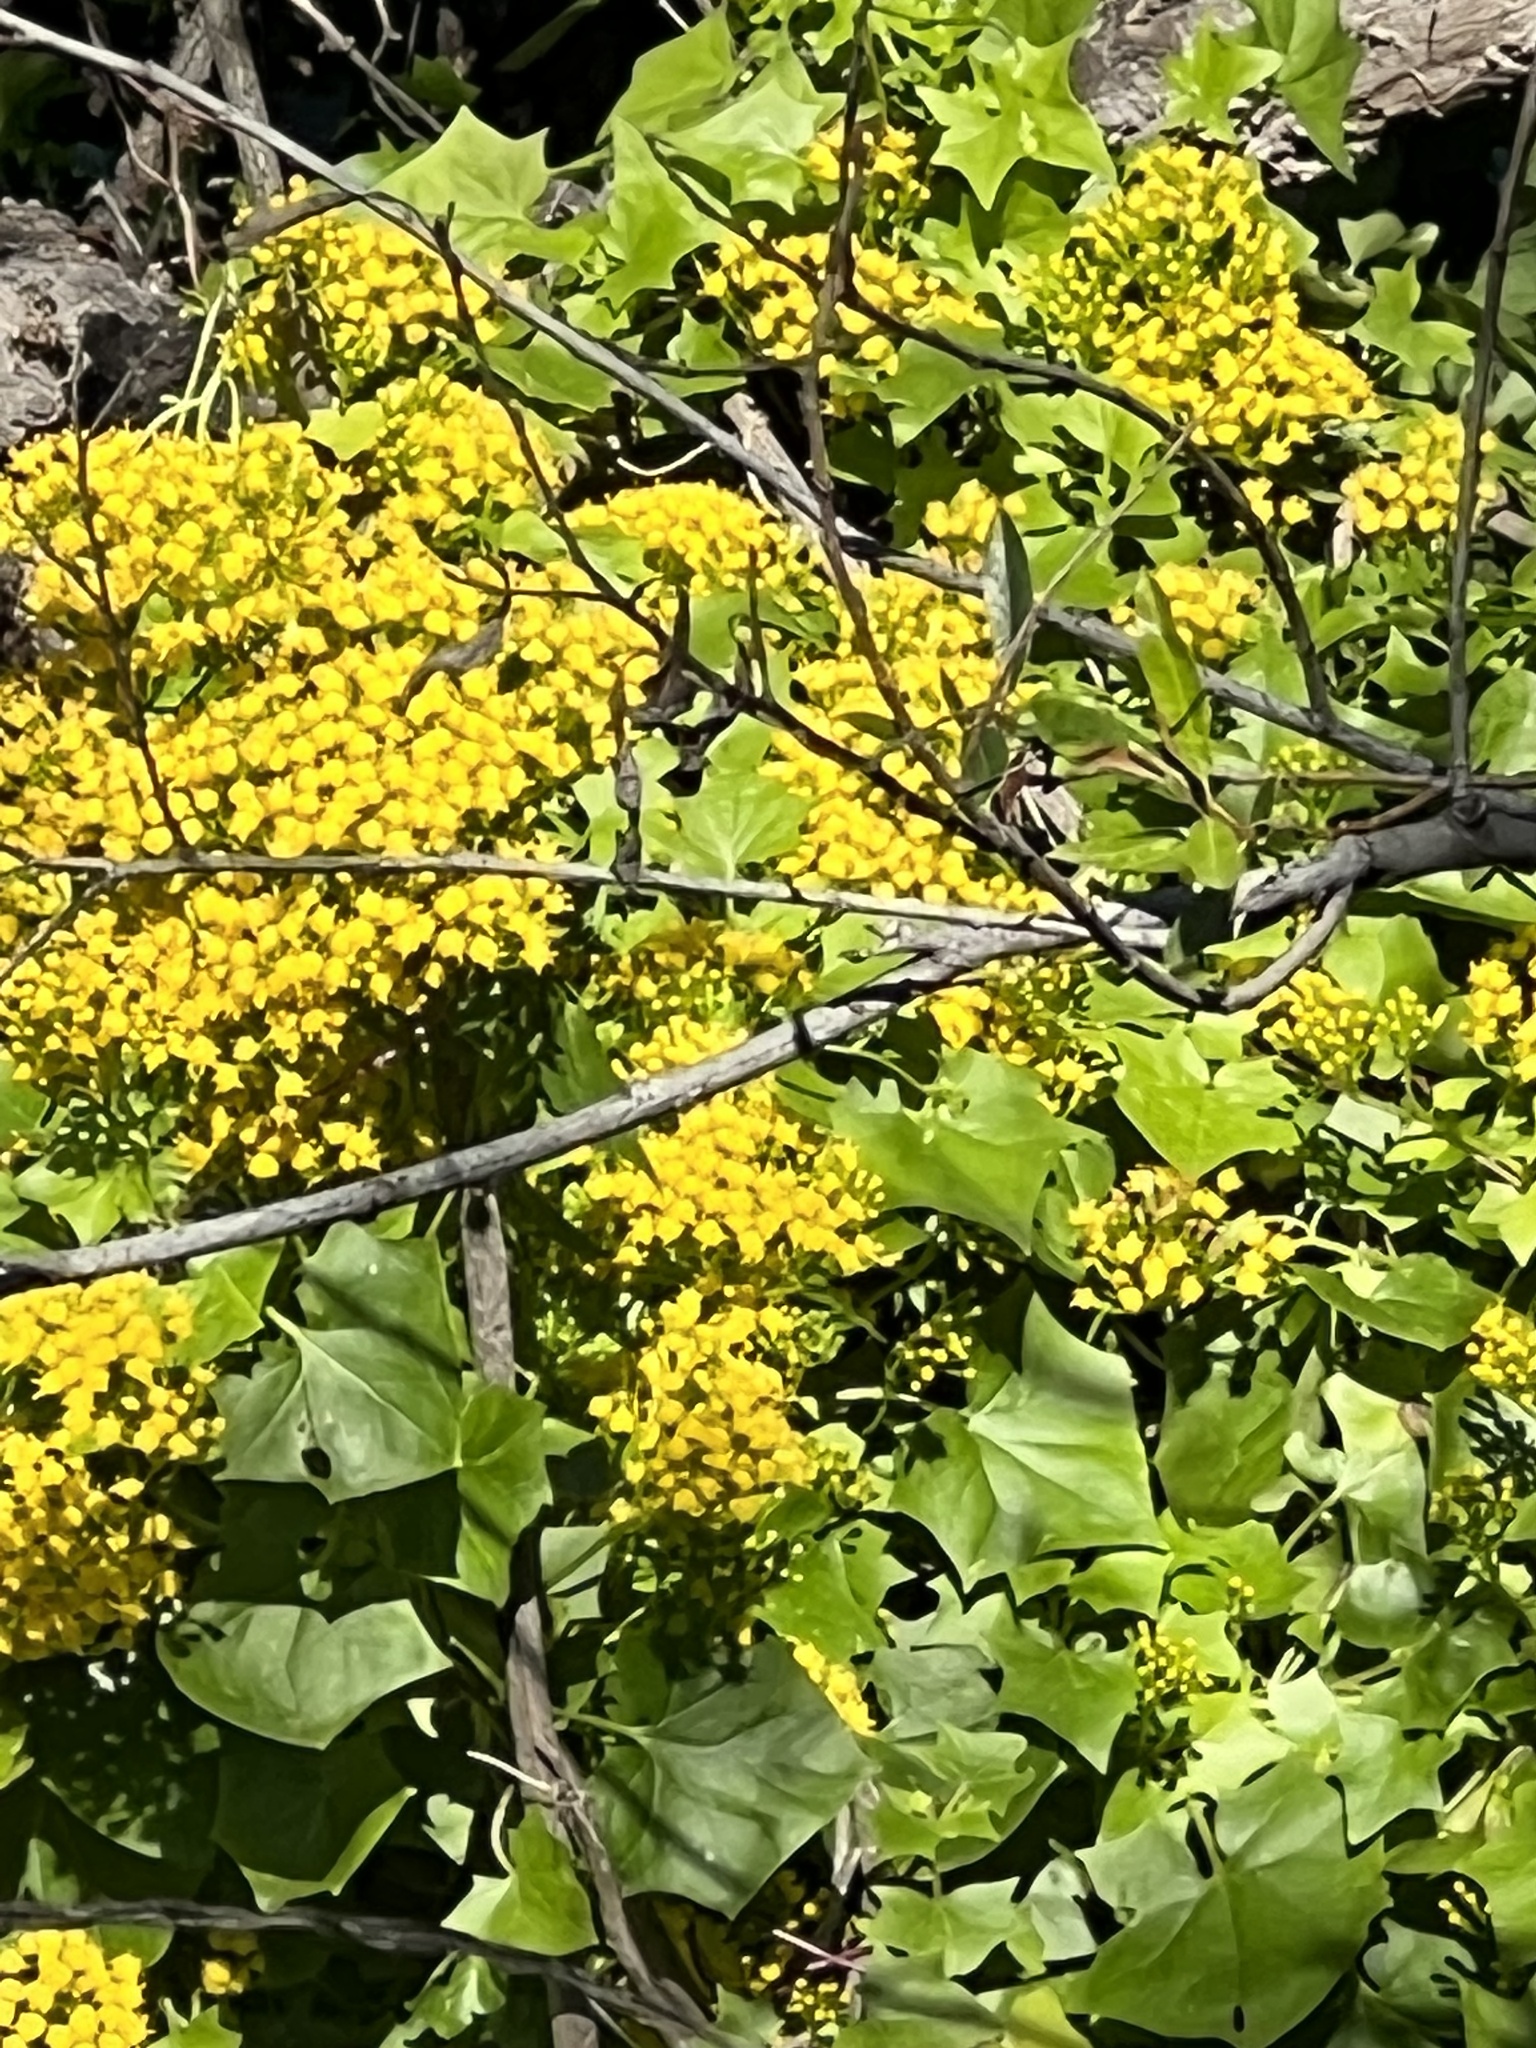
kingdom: Plantae
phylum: Tracheophyta
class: Magnoliopsida
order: Asterales
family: Asteraceae
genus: Delairea
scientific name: Delairea odorata
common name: Cape-ivy
